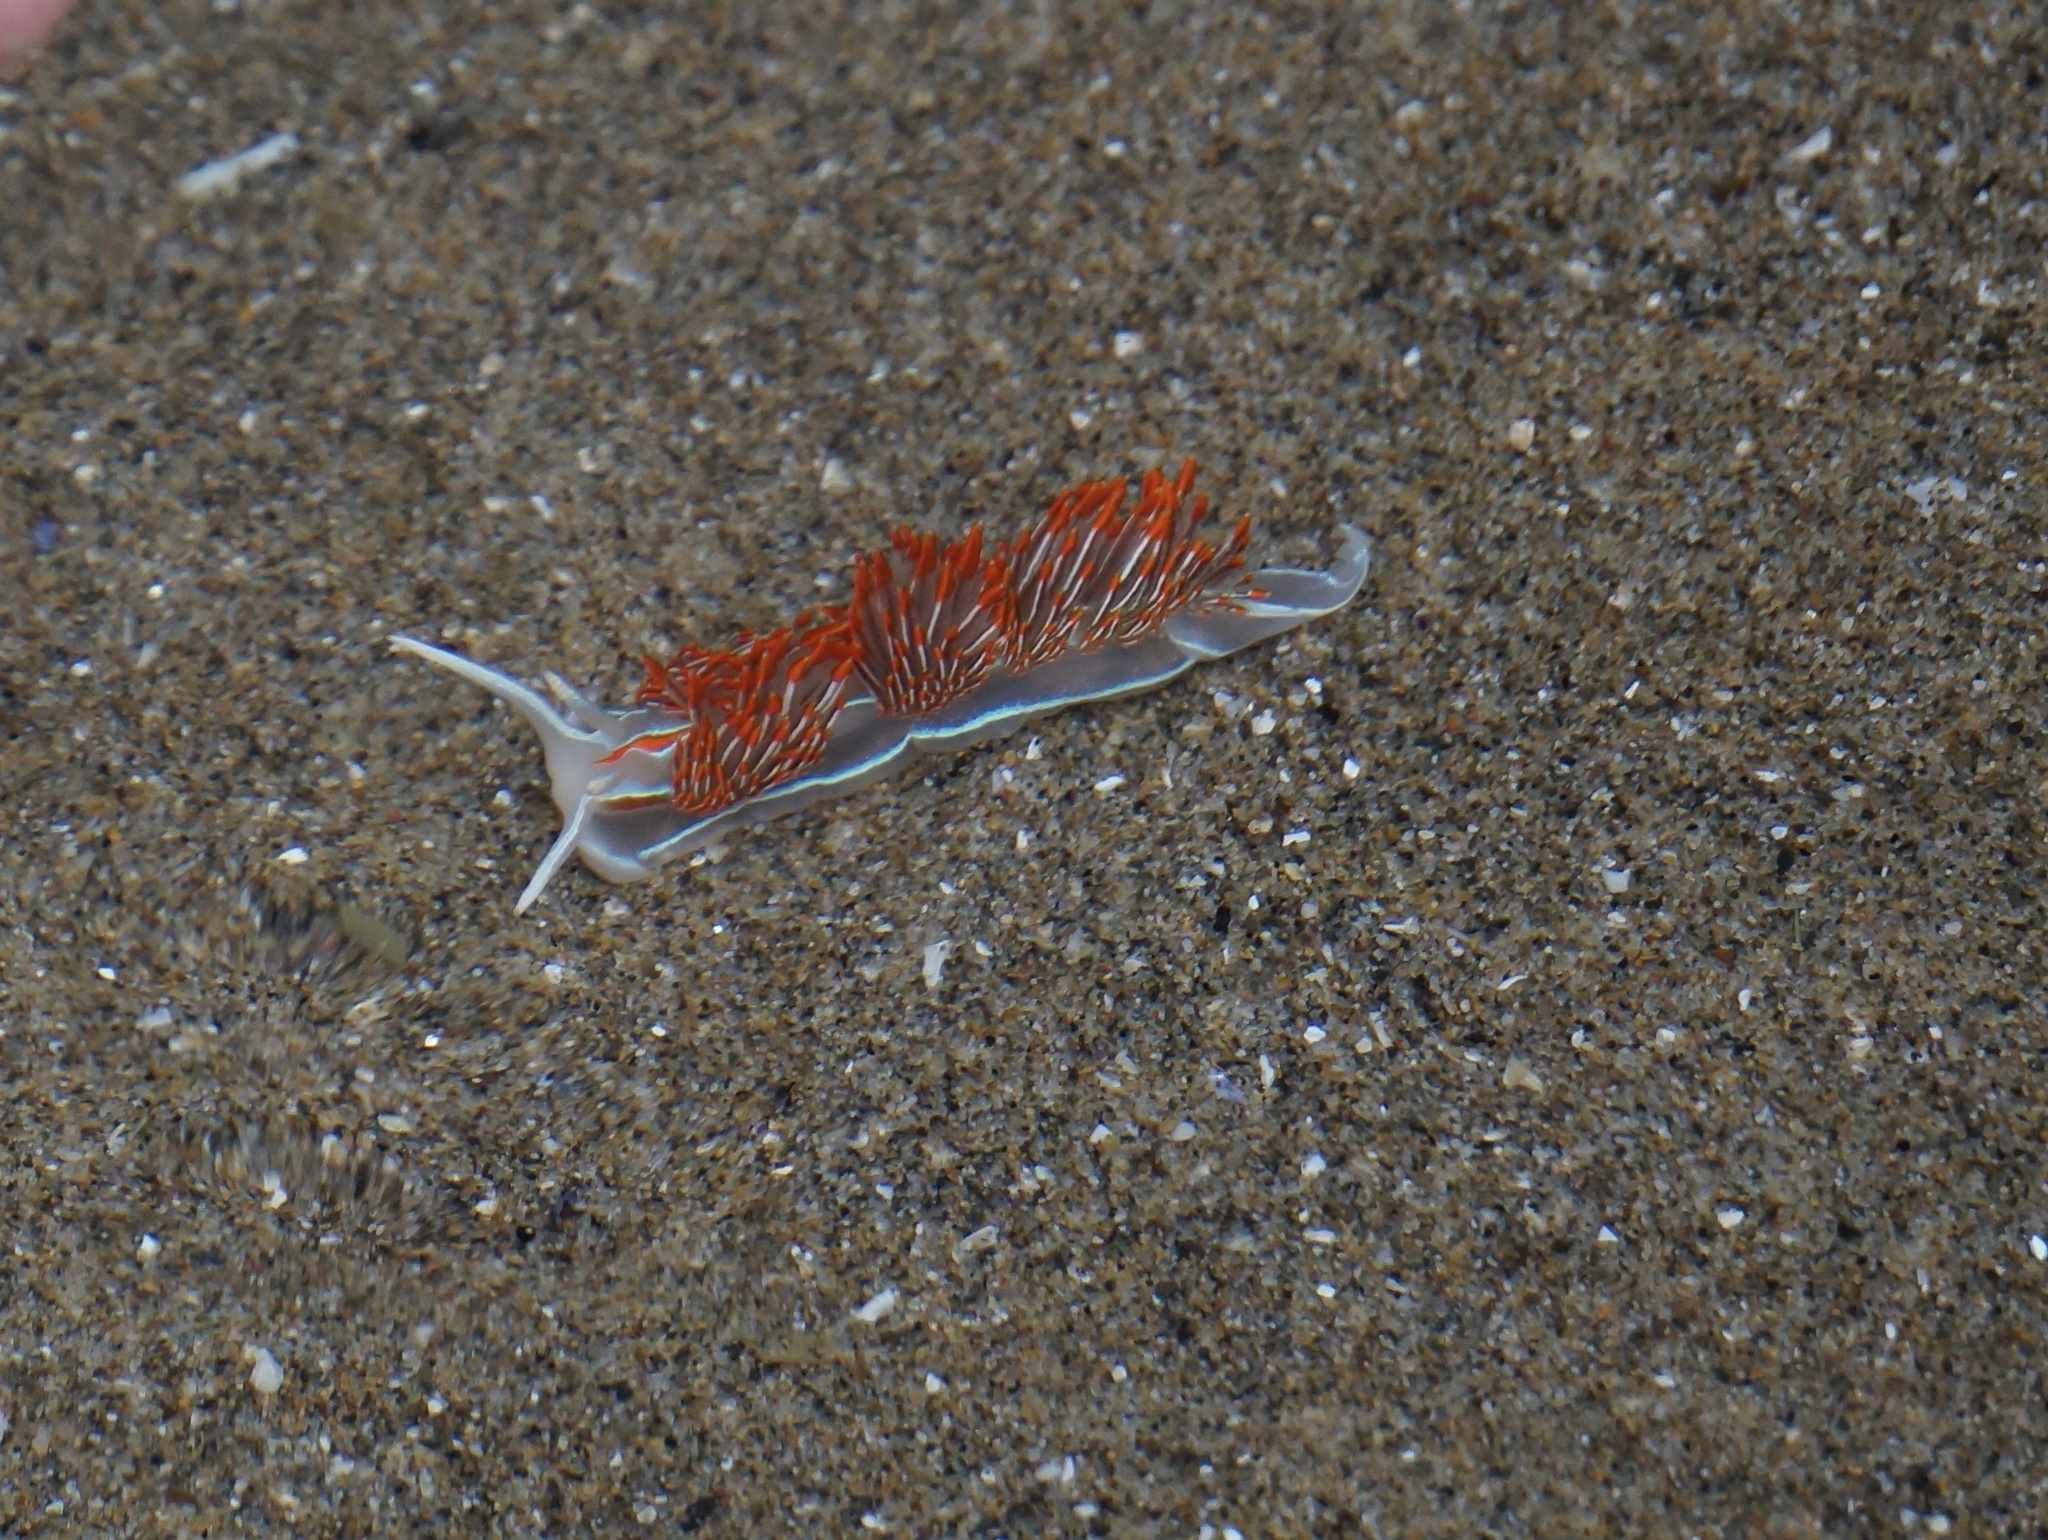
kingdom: Animalia
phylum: Mollusca
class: Gastropoda
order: Nudibranchia
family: Myrrhinidae
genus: Hermissenda
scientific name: Hermissenda crassicornis
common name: Hermissenda
